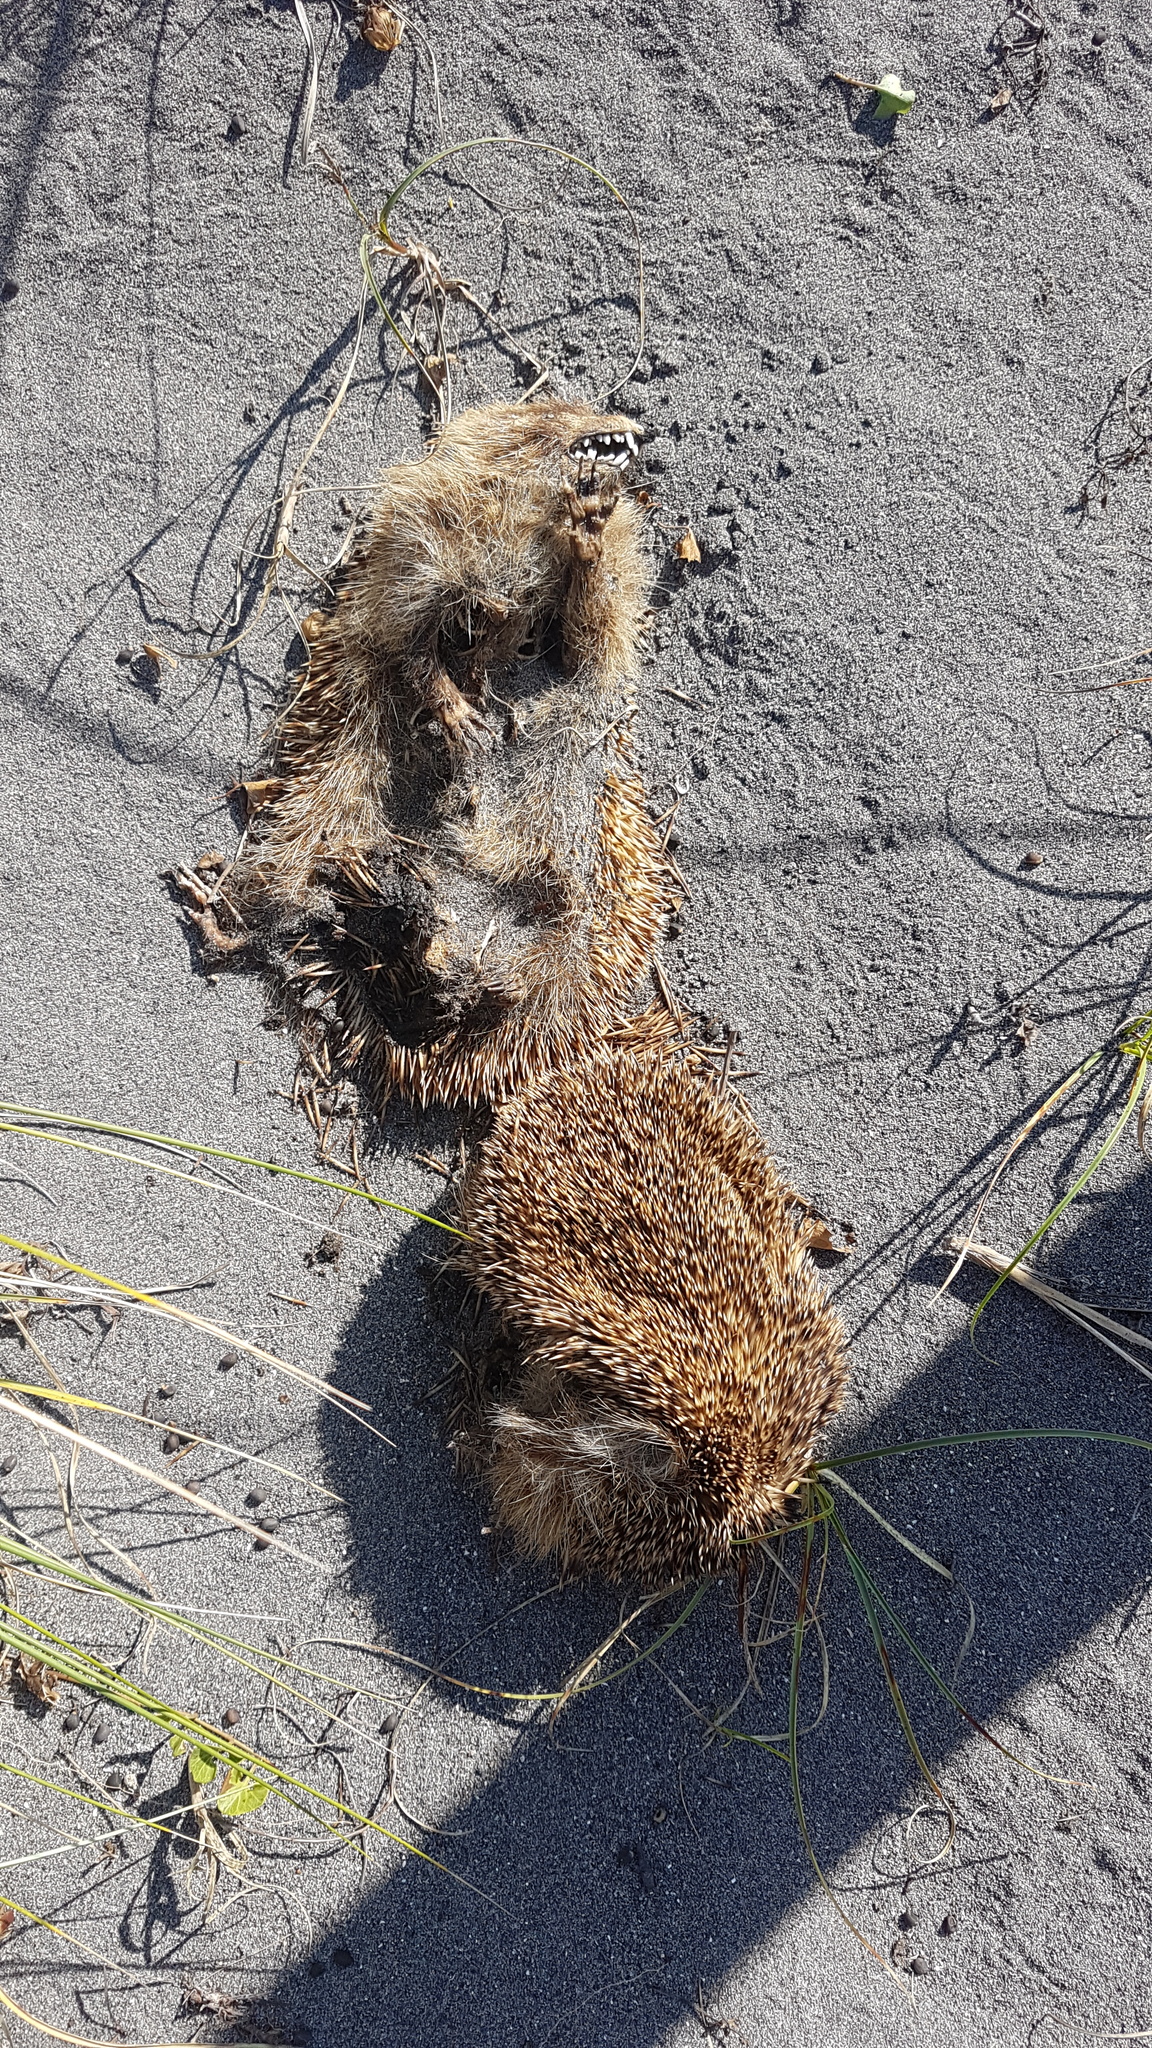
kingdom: Animalia
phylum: Chordata
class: Mammalia
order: Erinaceomorpha
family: Erinaceidae
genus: Erinaceus
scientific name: Erinaceus europaeus
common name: West european hedgehog
